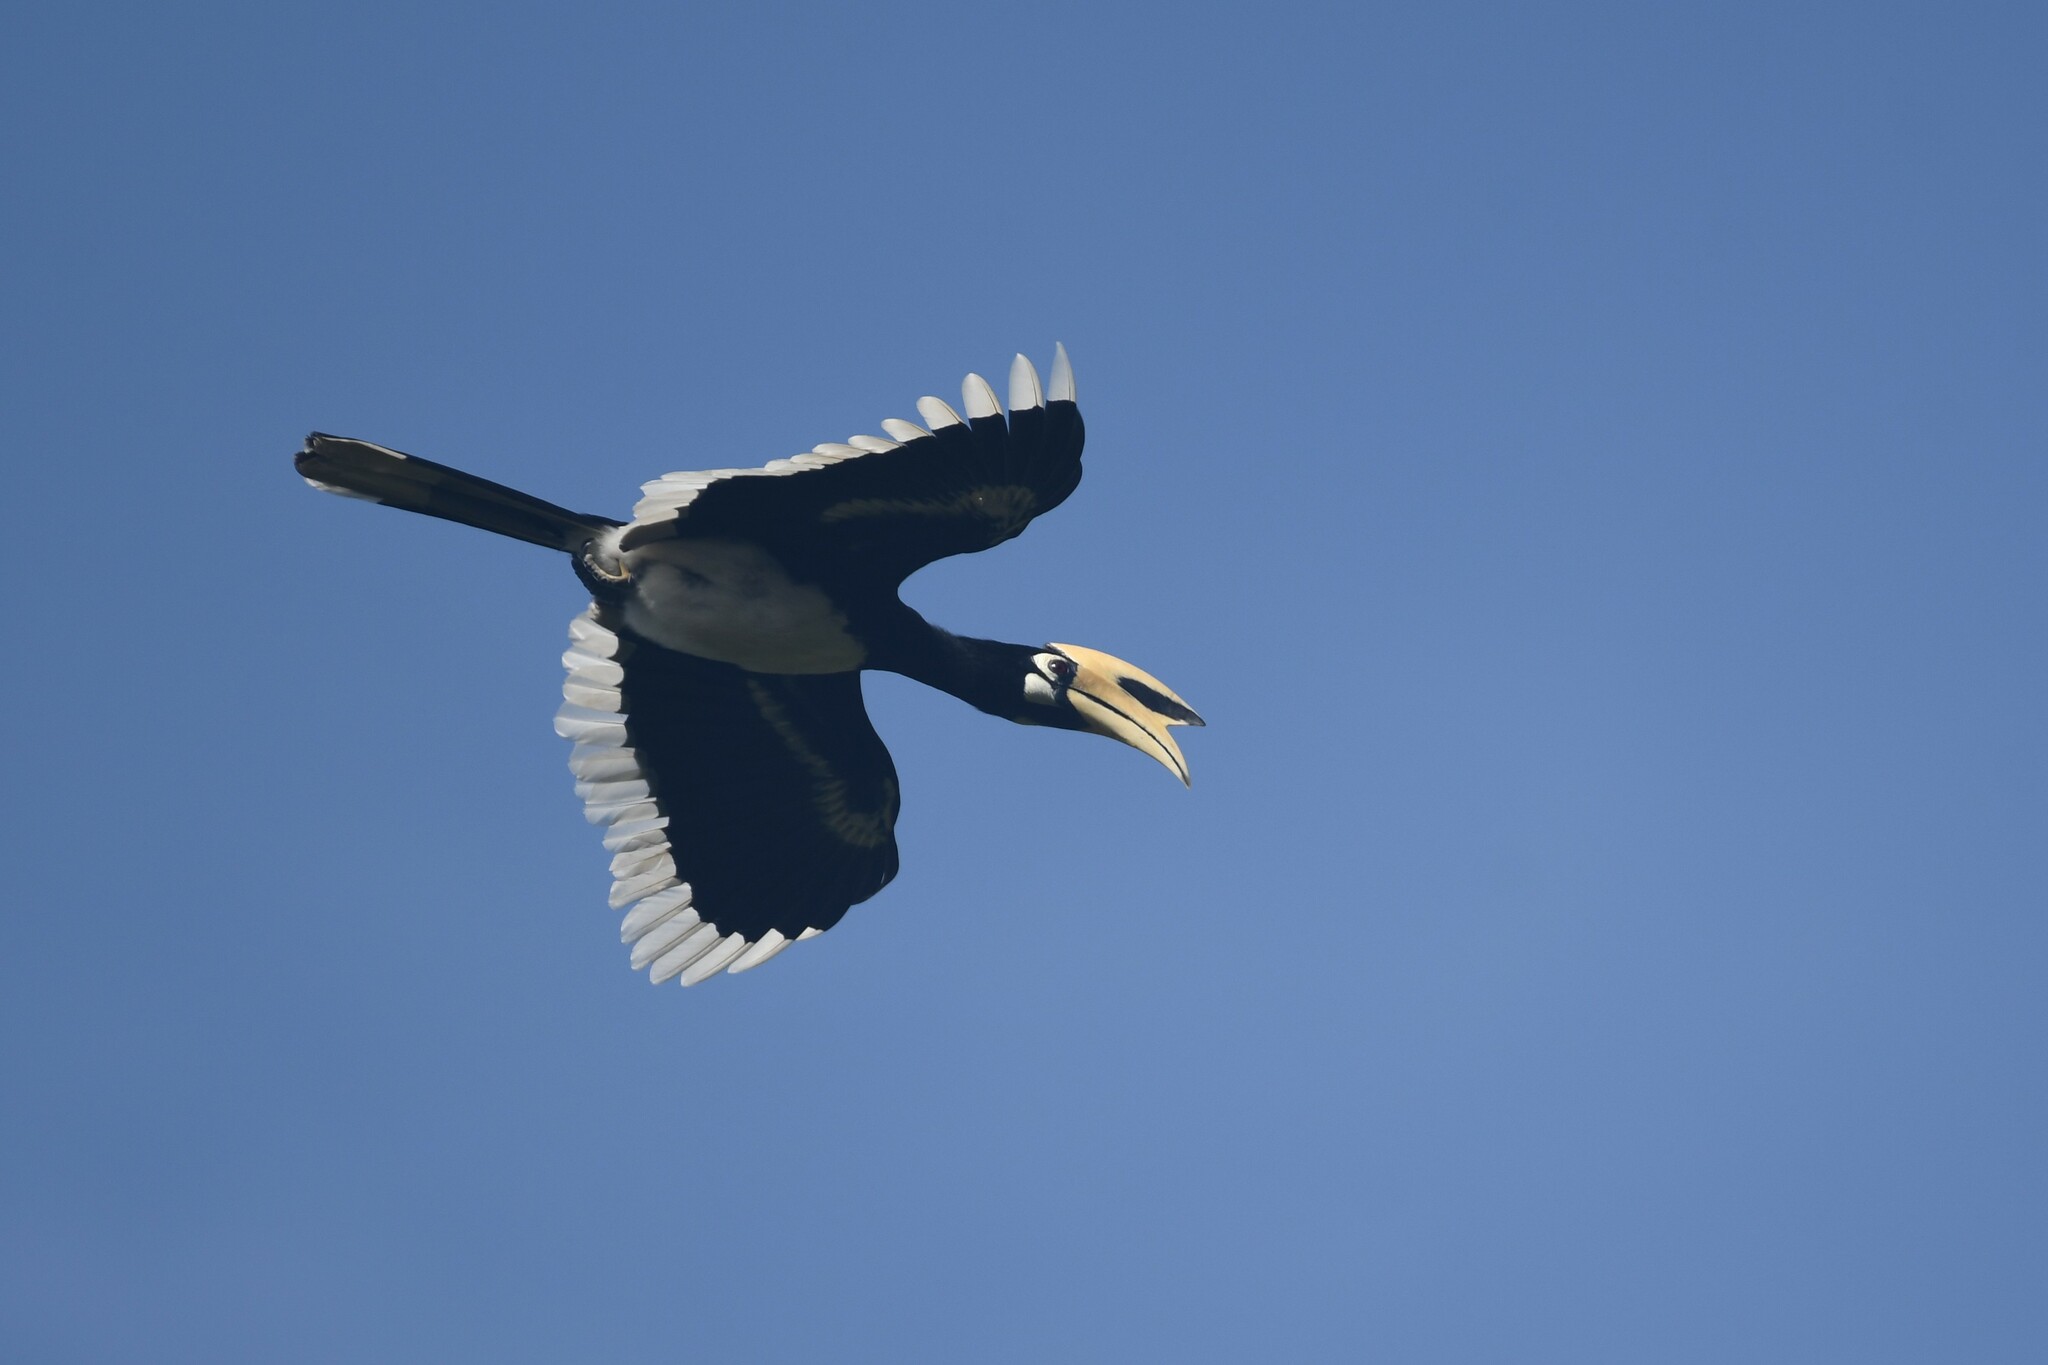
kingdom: Animalia
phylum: Chordata
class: Aves
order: Bucerotiformes
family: Bucerotidae
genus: Anthracoceros
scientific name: Anthracoceros albirostris
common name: Oriental pied-hornbill
